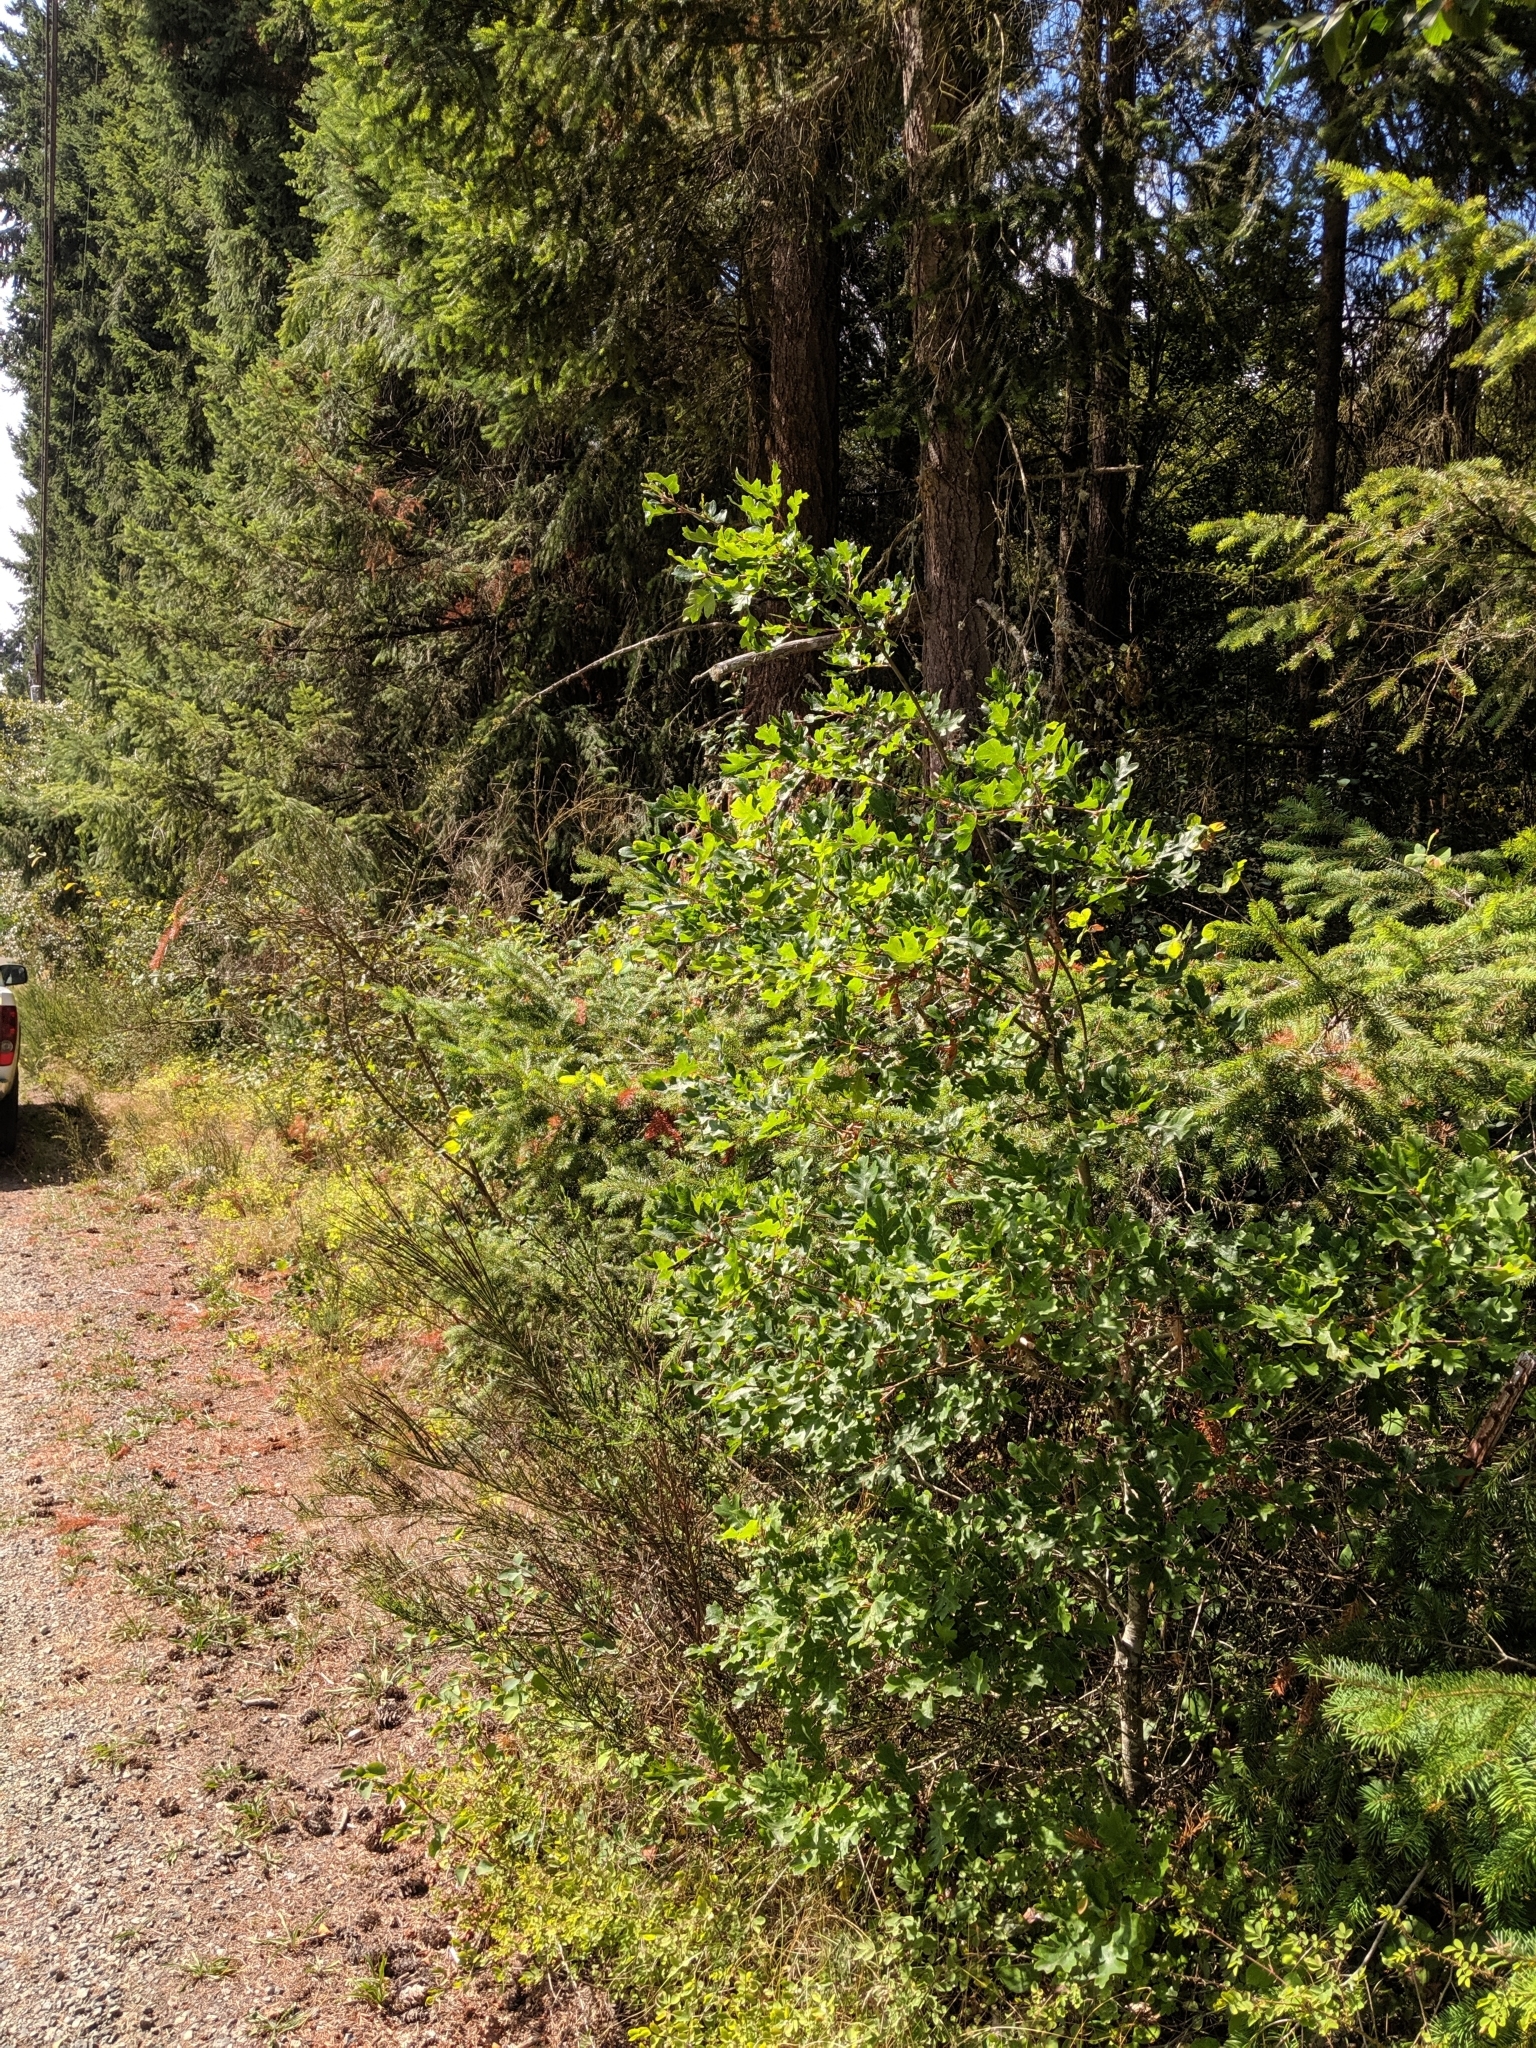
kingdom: Plantae
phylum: Tracheophyta
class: Magnoliopsida
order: Fagales
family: Fagaceae
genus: Quercus
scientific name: Quercus garryana
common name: Garry oak
